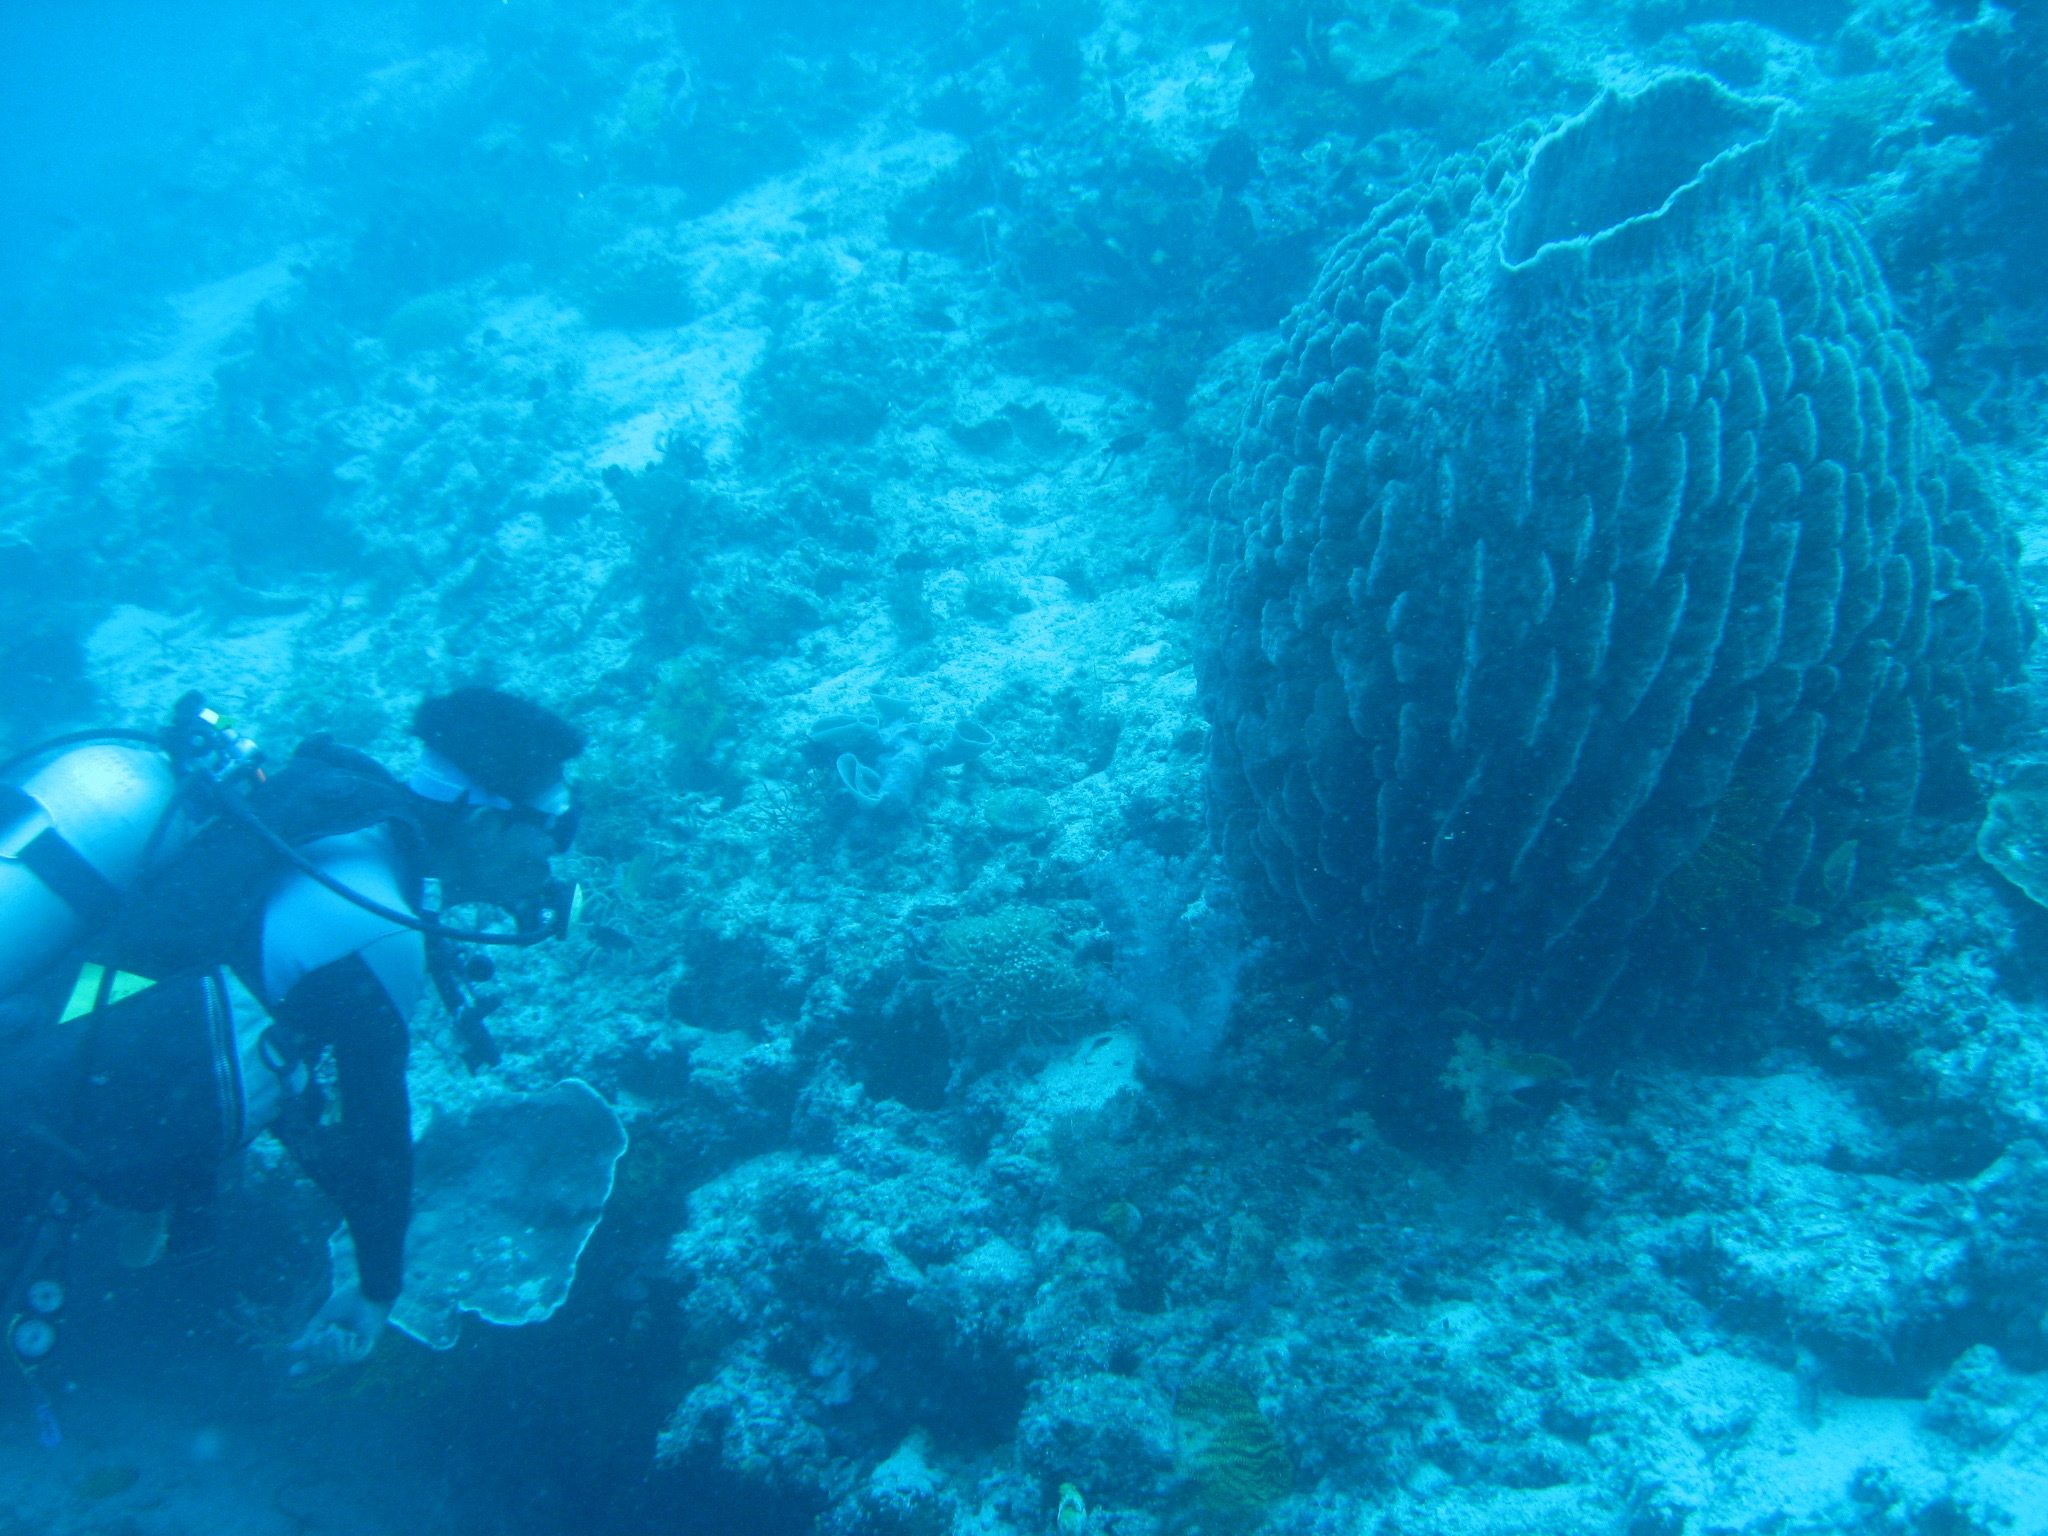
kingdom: Animalia
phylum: Porifera
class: Demospongiae
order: Haplosclerida
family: Petrosiidae
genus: Xestospongia
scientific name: Xestospongia testudinaria
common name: Barrel sponge
